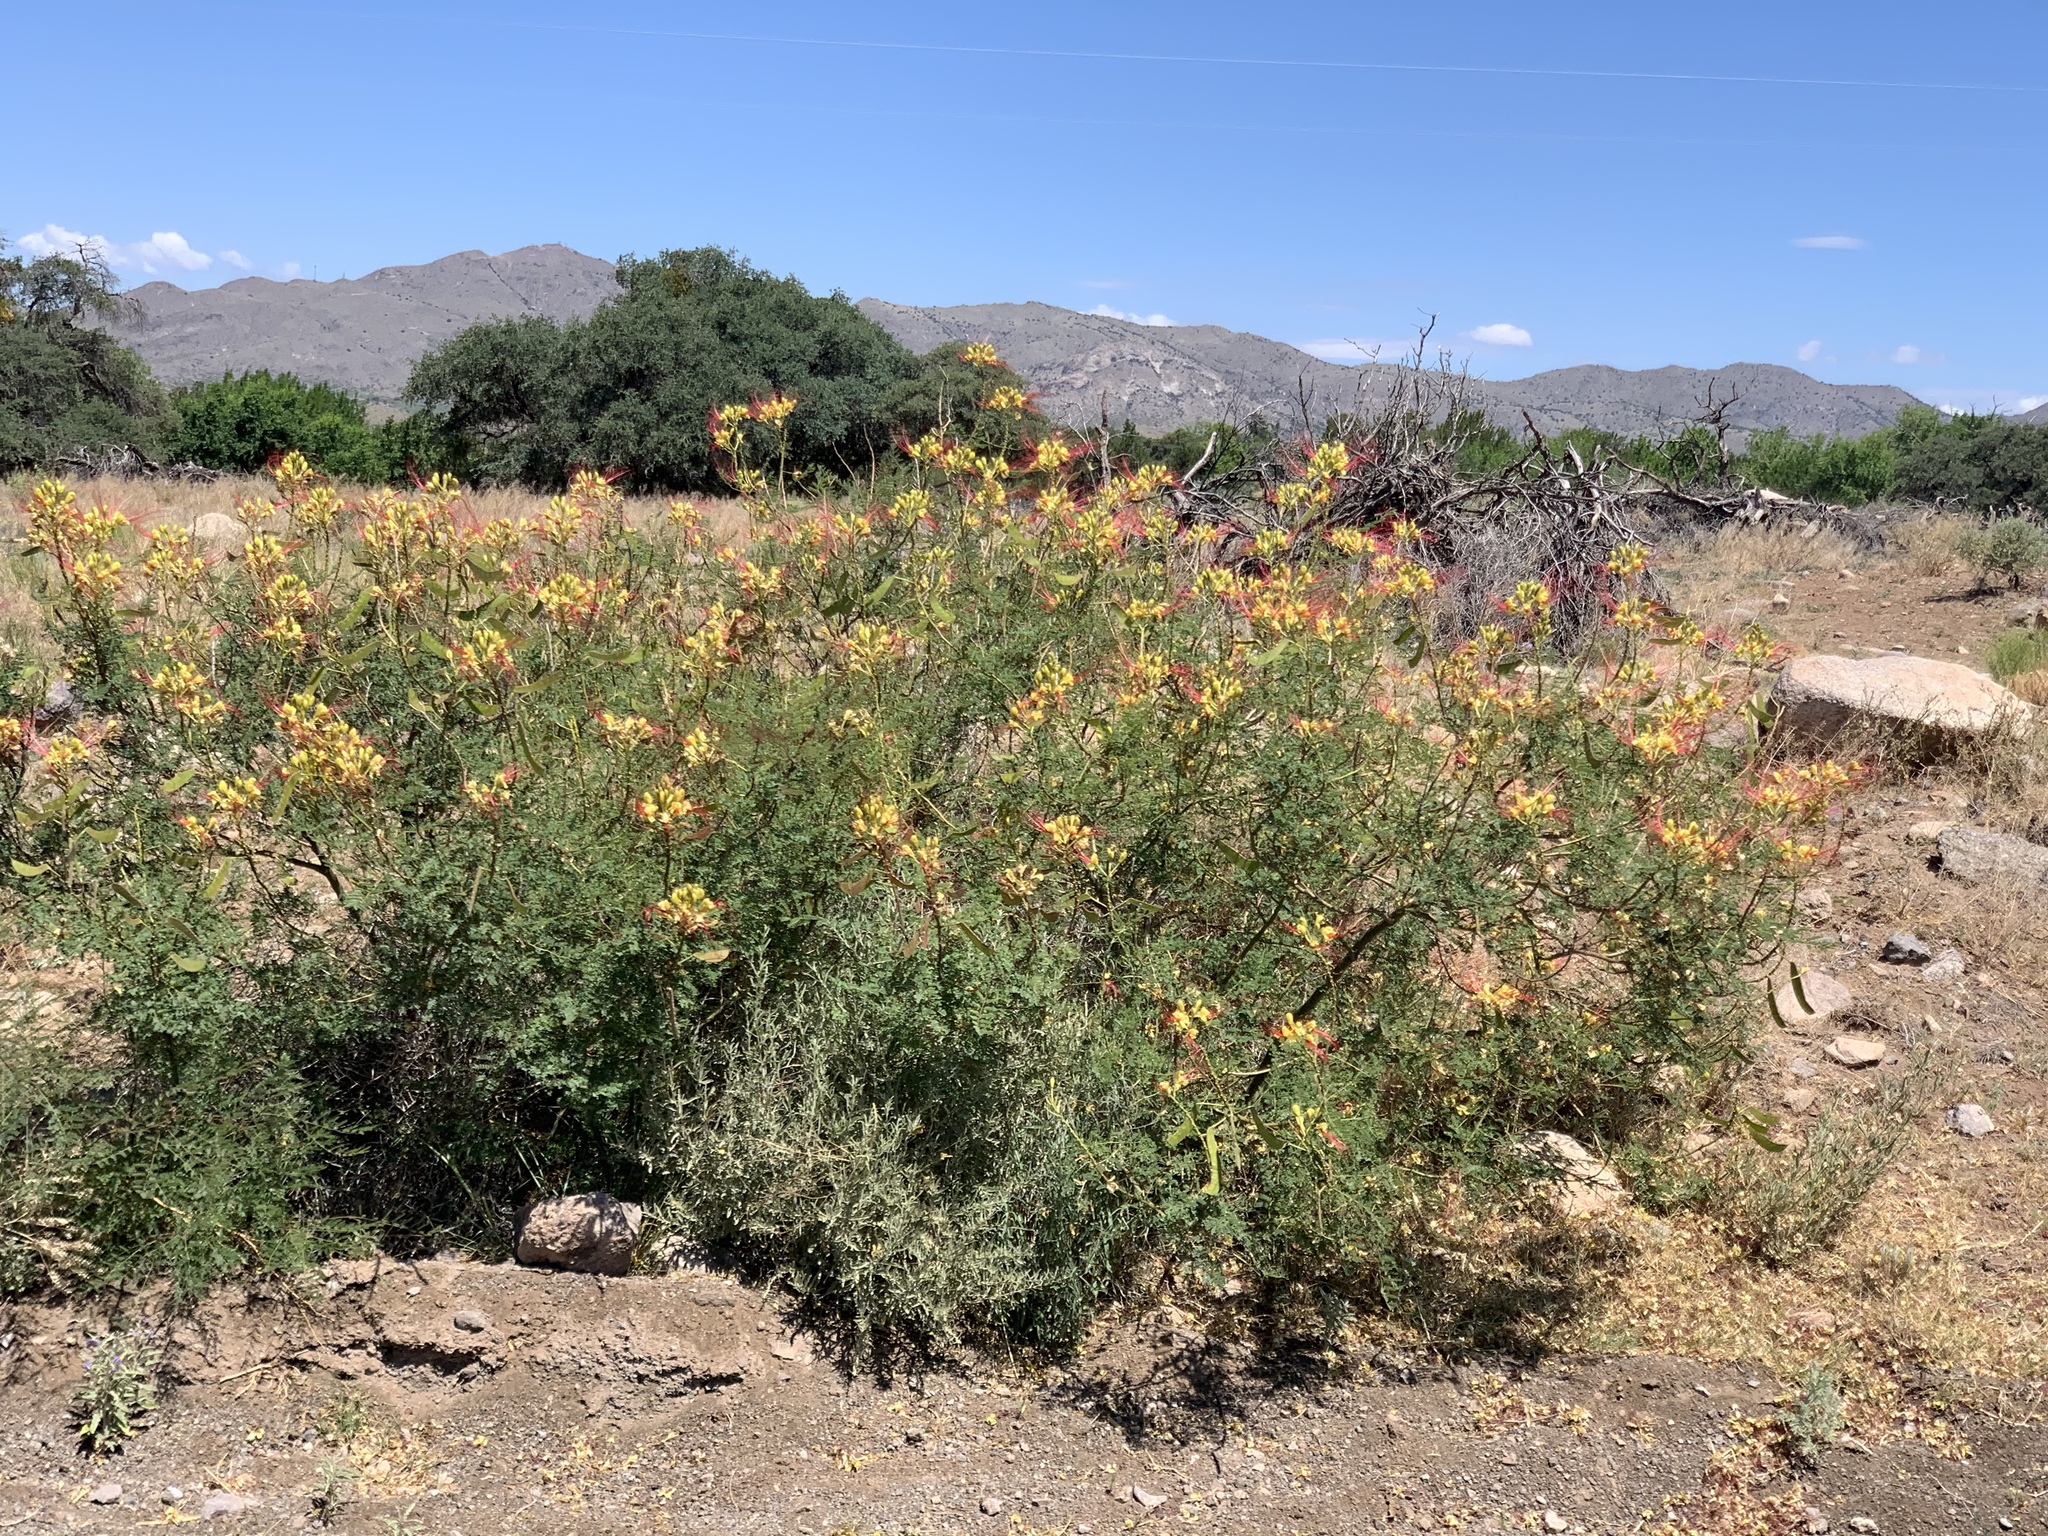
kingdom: Plantae
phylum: Tracheophyta
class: Magnoliopsida
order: Fabales
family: Fabaceae
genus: Erythrostemon
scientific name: Erythrostemon gilliesii
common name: Bird-of-paradise shrub
